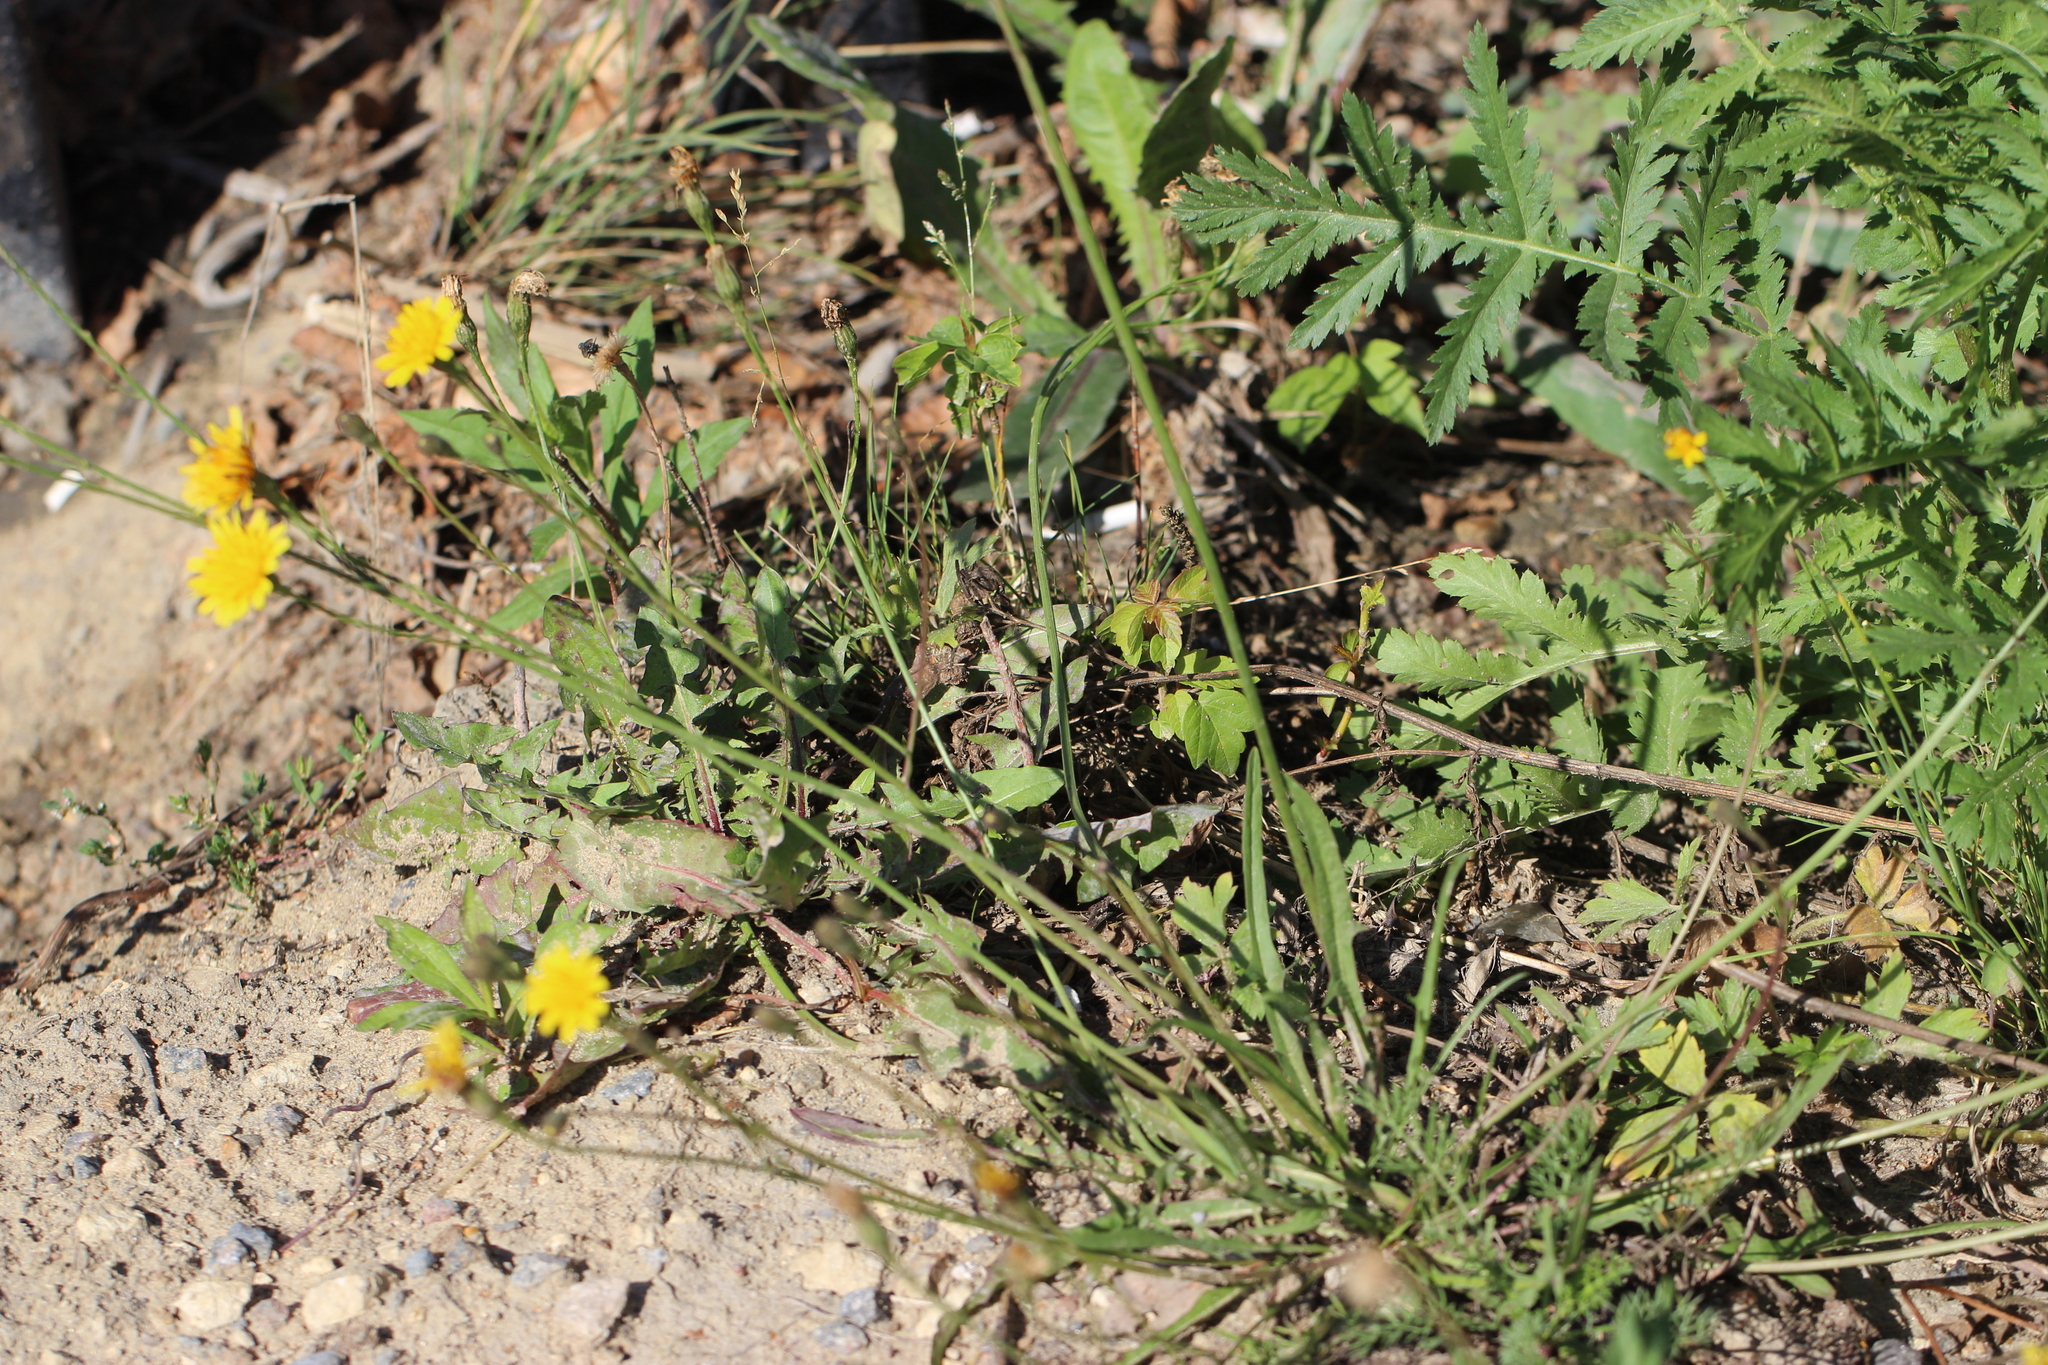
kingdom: Plantae
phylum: Tracheophyta
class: Magnoliopsida
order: Asterales
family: Asteraceae
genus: Scorzoneroides
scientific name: Scorzoneroides autumnalis
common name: Autumn hawkbit
